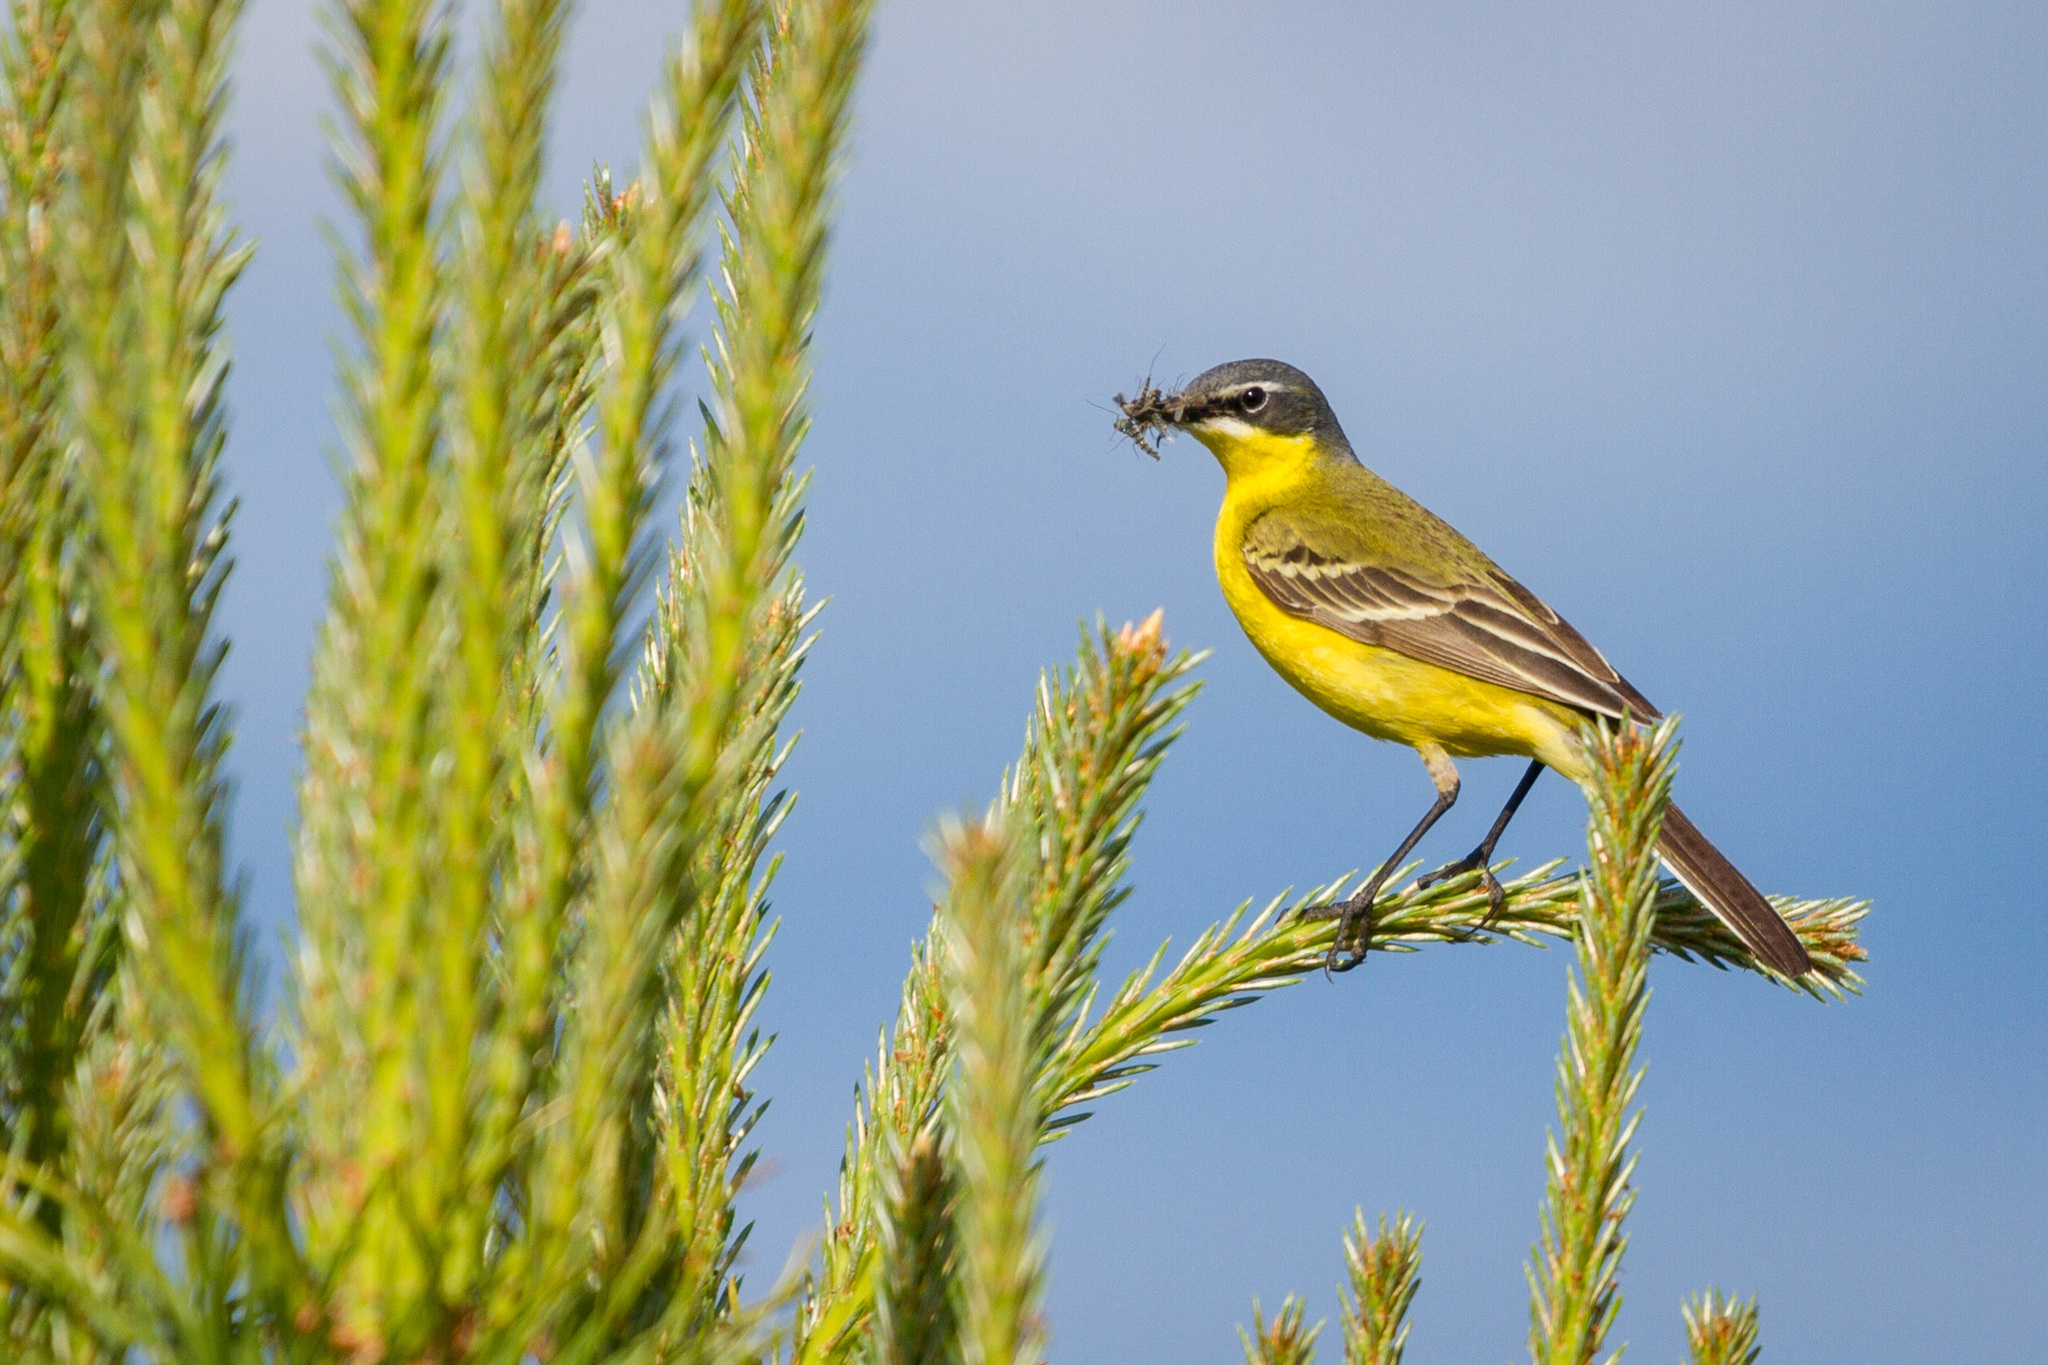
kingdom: Animalia
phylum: Chordata
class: Aves
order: Passeriformes
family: Motacillidae
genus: Motacilla
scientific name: Motacilla flava
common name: Western yellow wagtail
